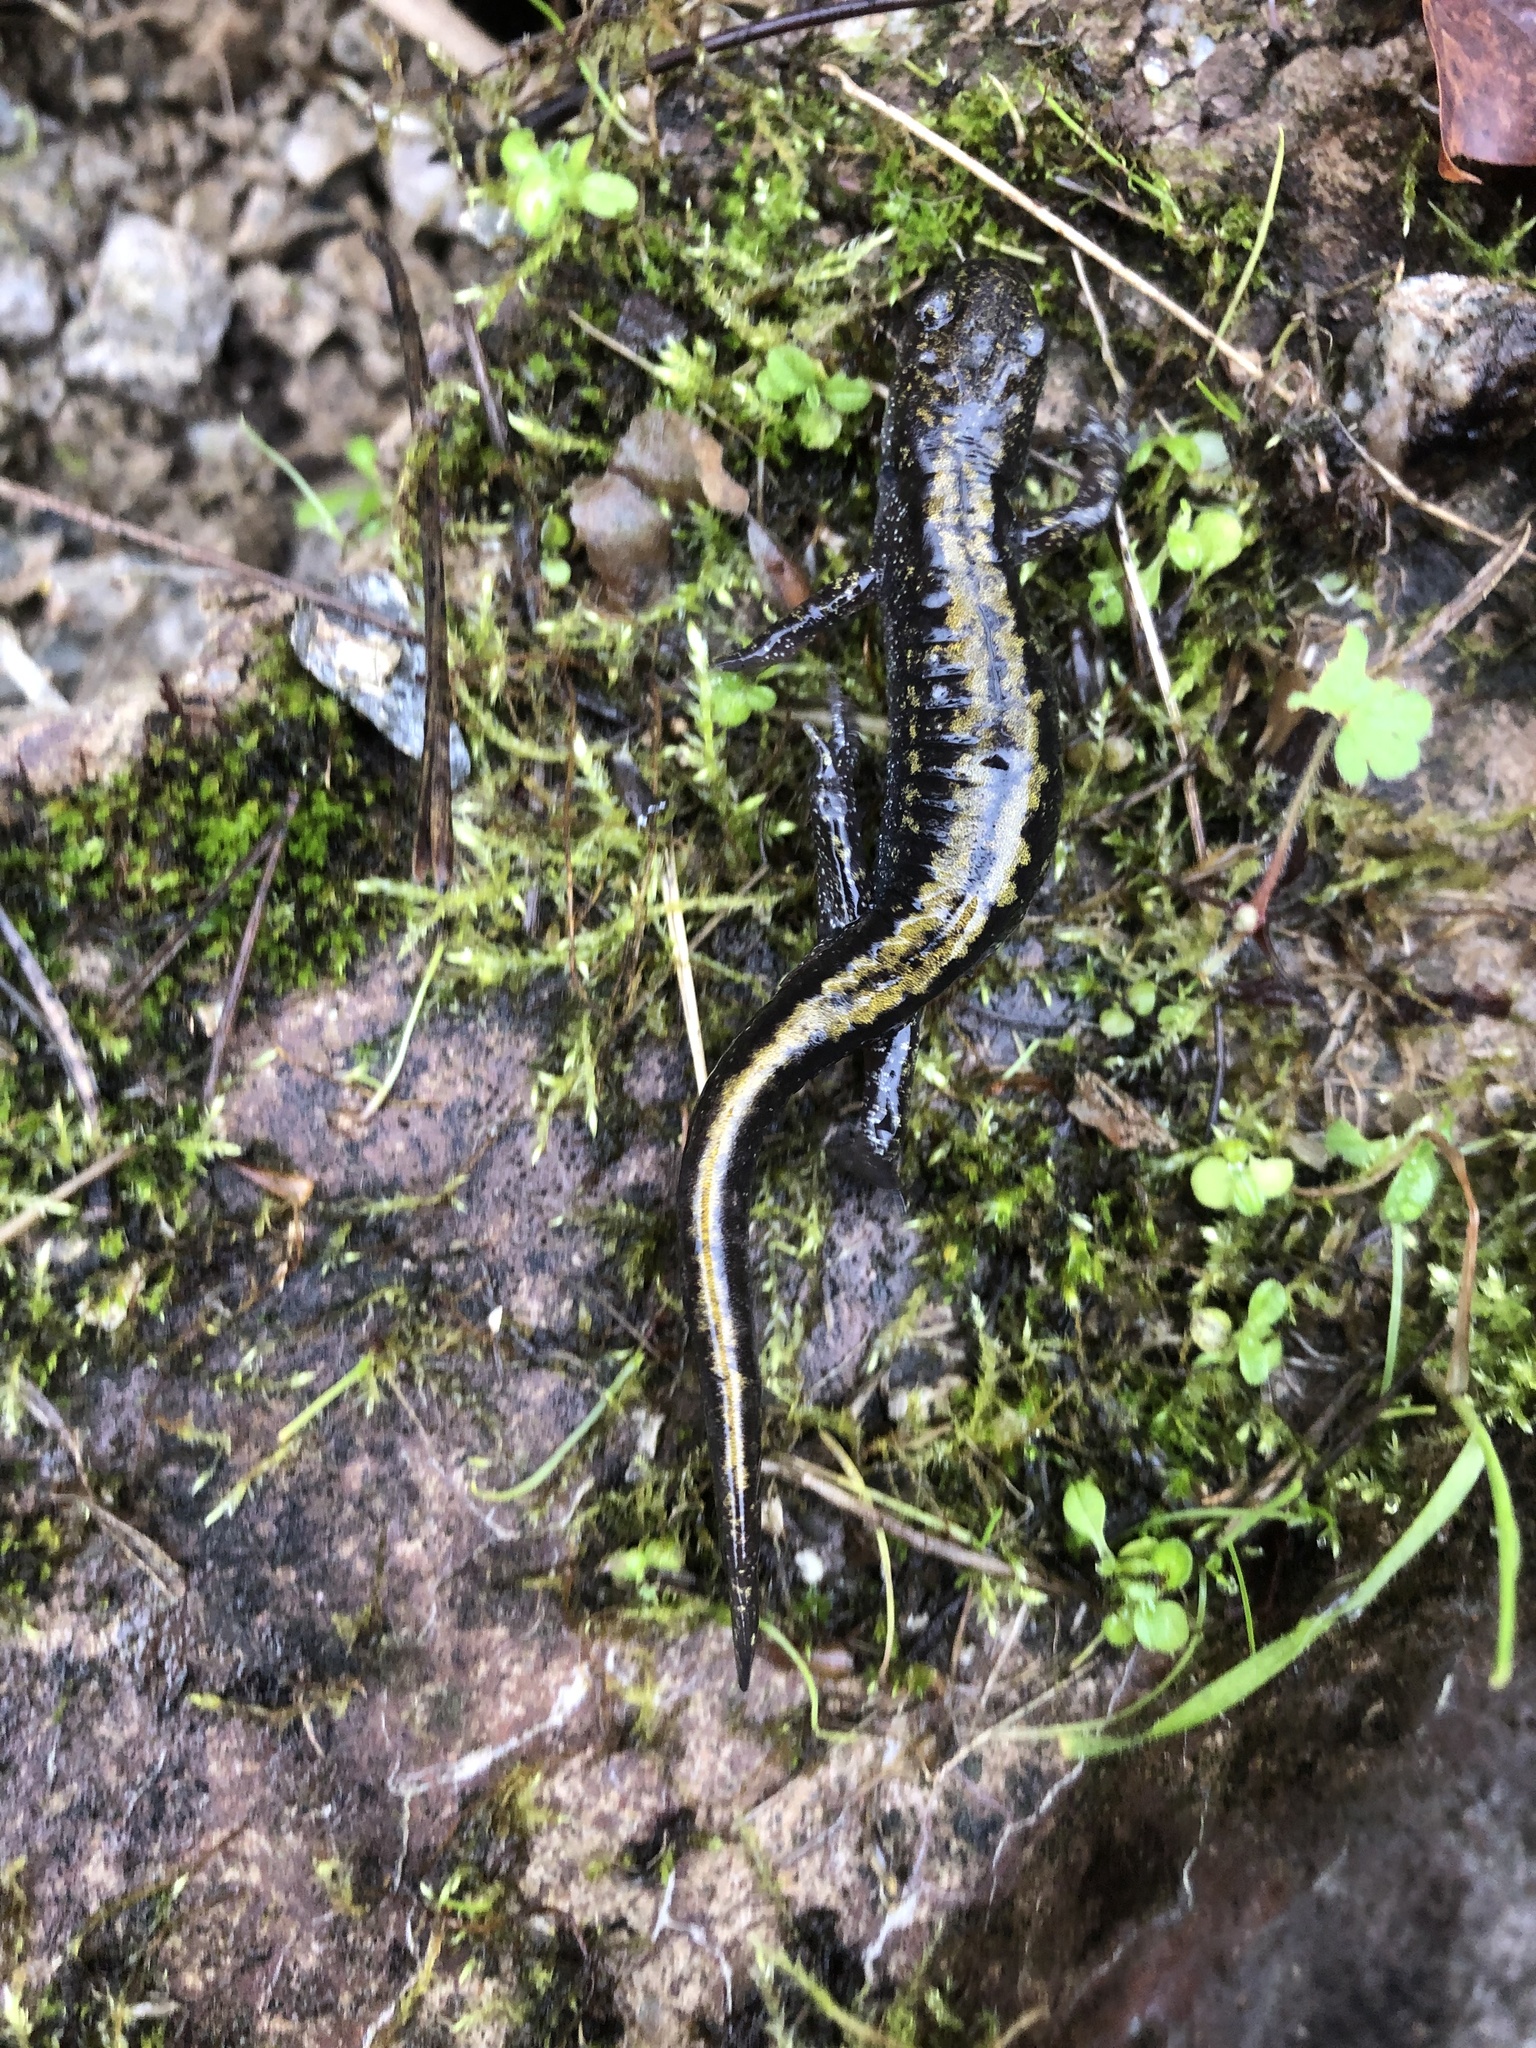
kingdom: Animalia
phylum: Chordata
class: Amphibia
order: Caudata
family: Ambystomatidae
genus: Ambystoma
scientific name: Ambystoma macrodactylum
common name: Long-toed salamander
